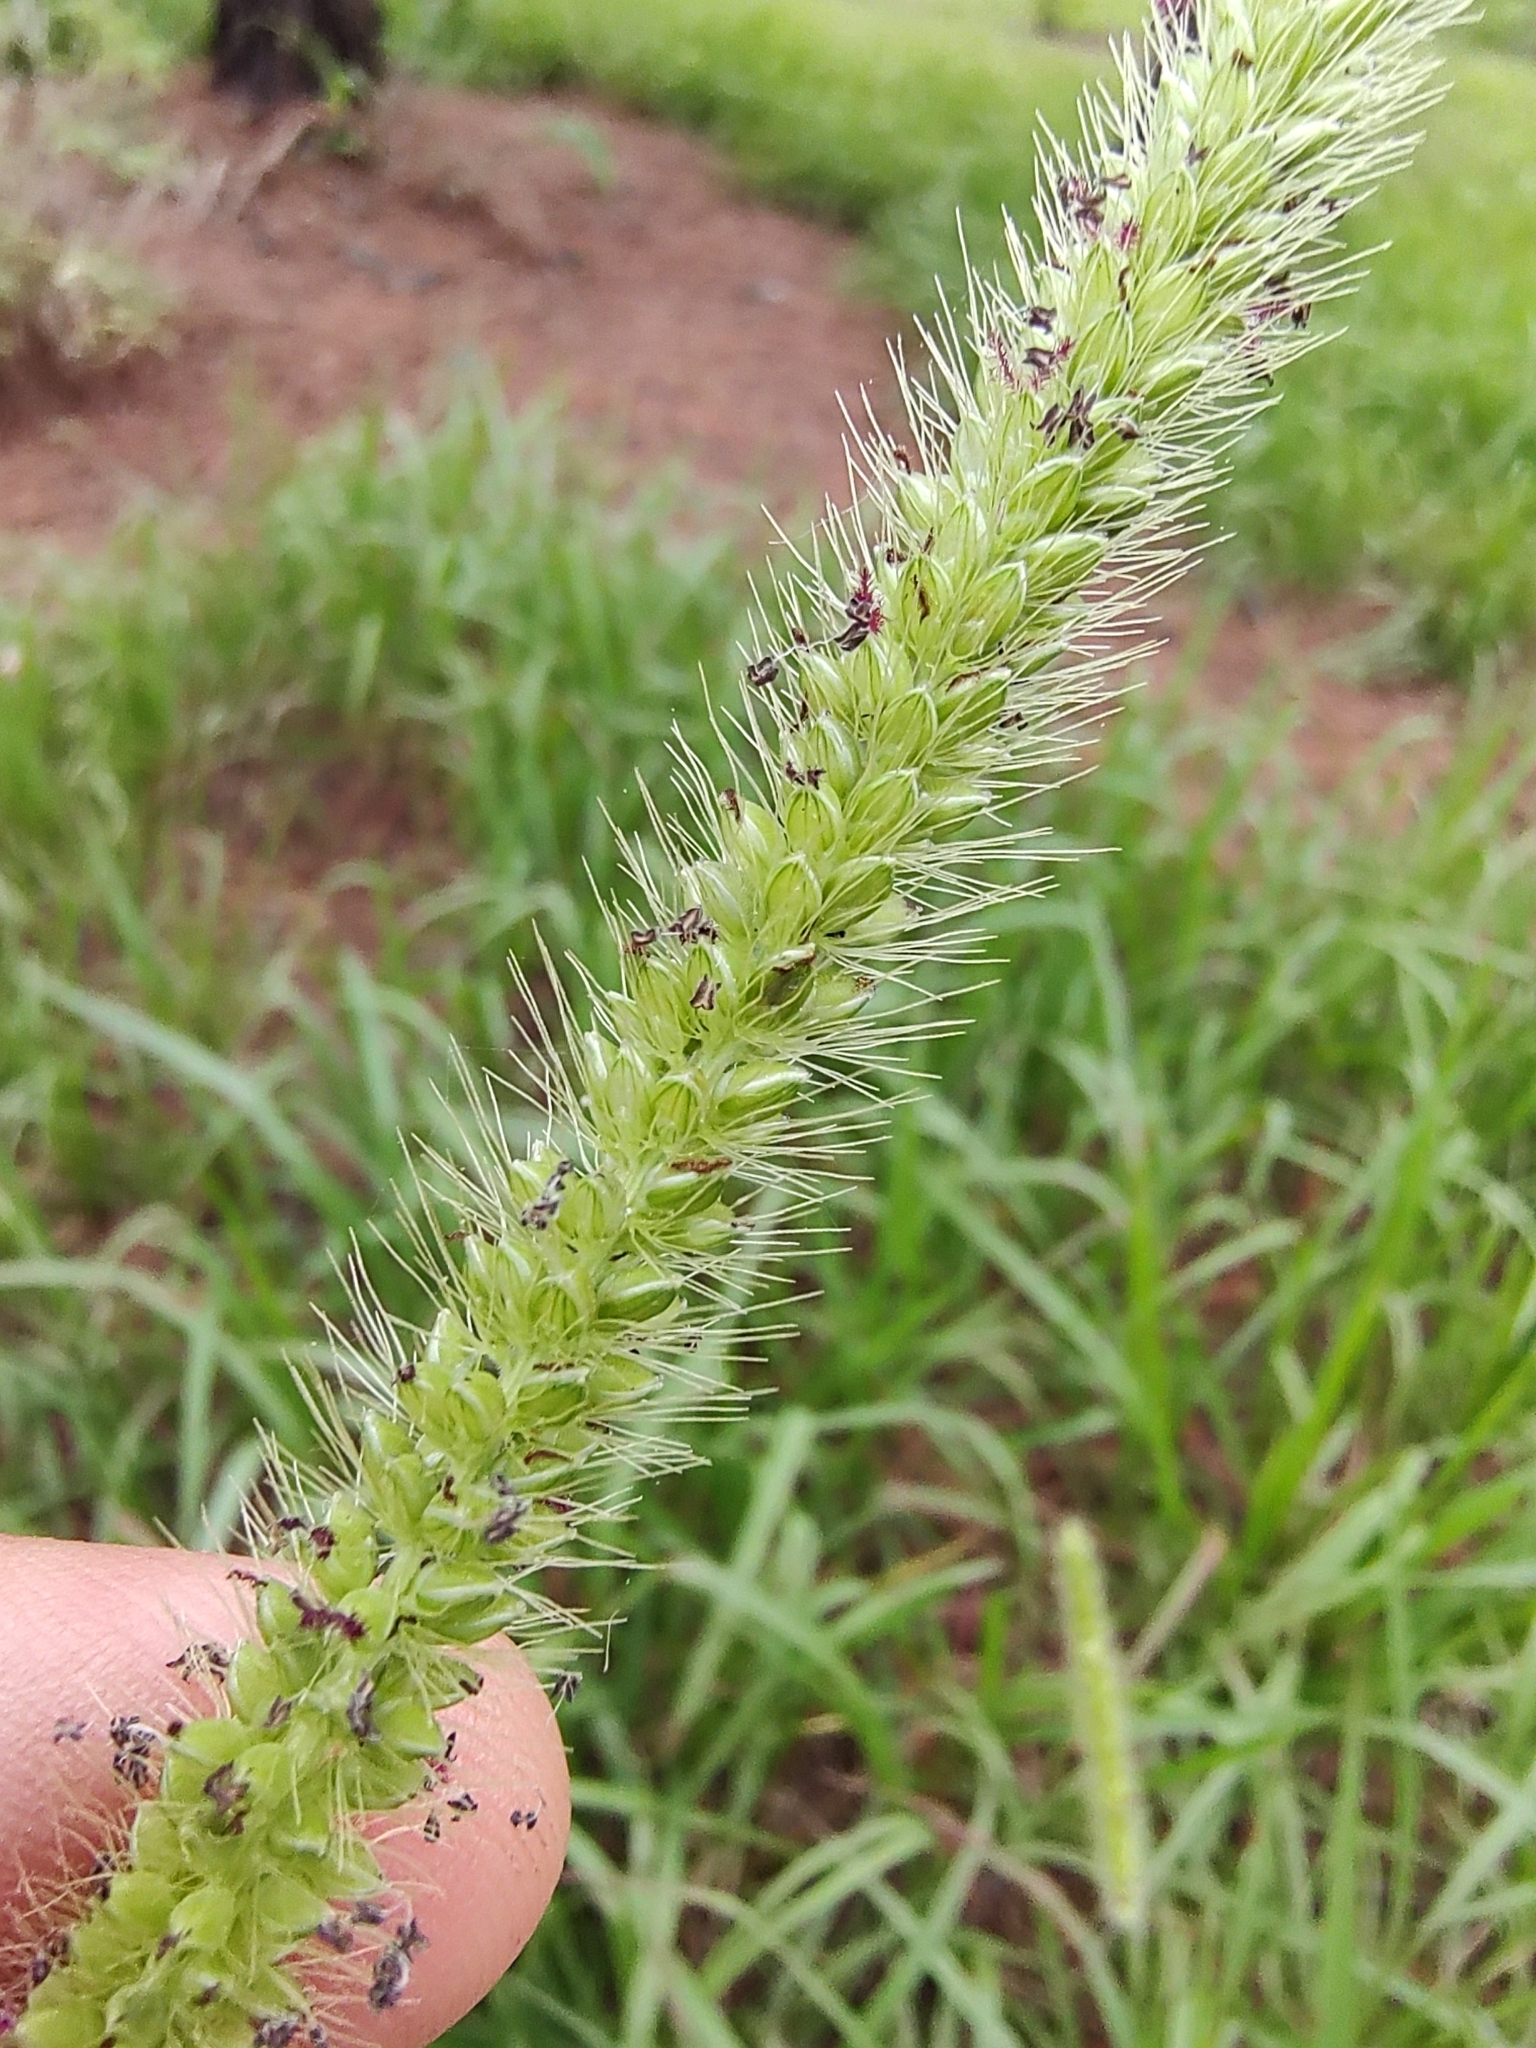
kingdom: Plantae
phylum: Tracheophyta
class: Liliopsida
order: Poales
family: Poaceae
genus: Setaria
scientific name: Setaria parviflora
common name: Knotroot bristle-grass
